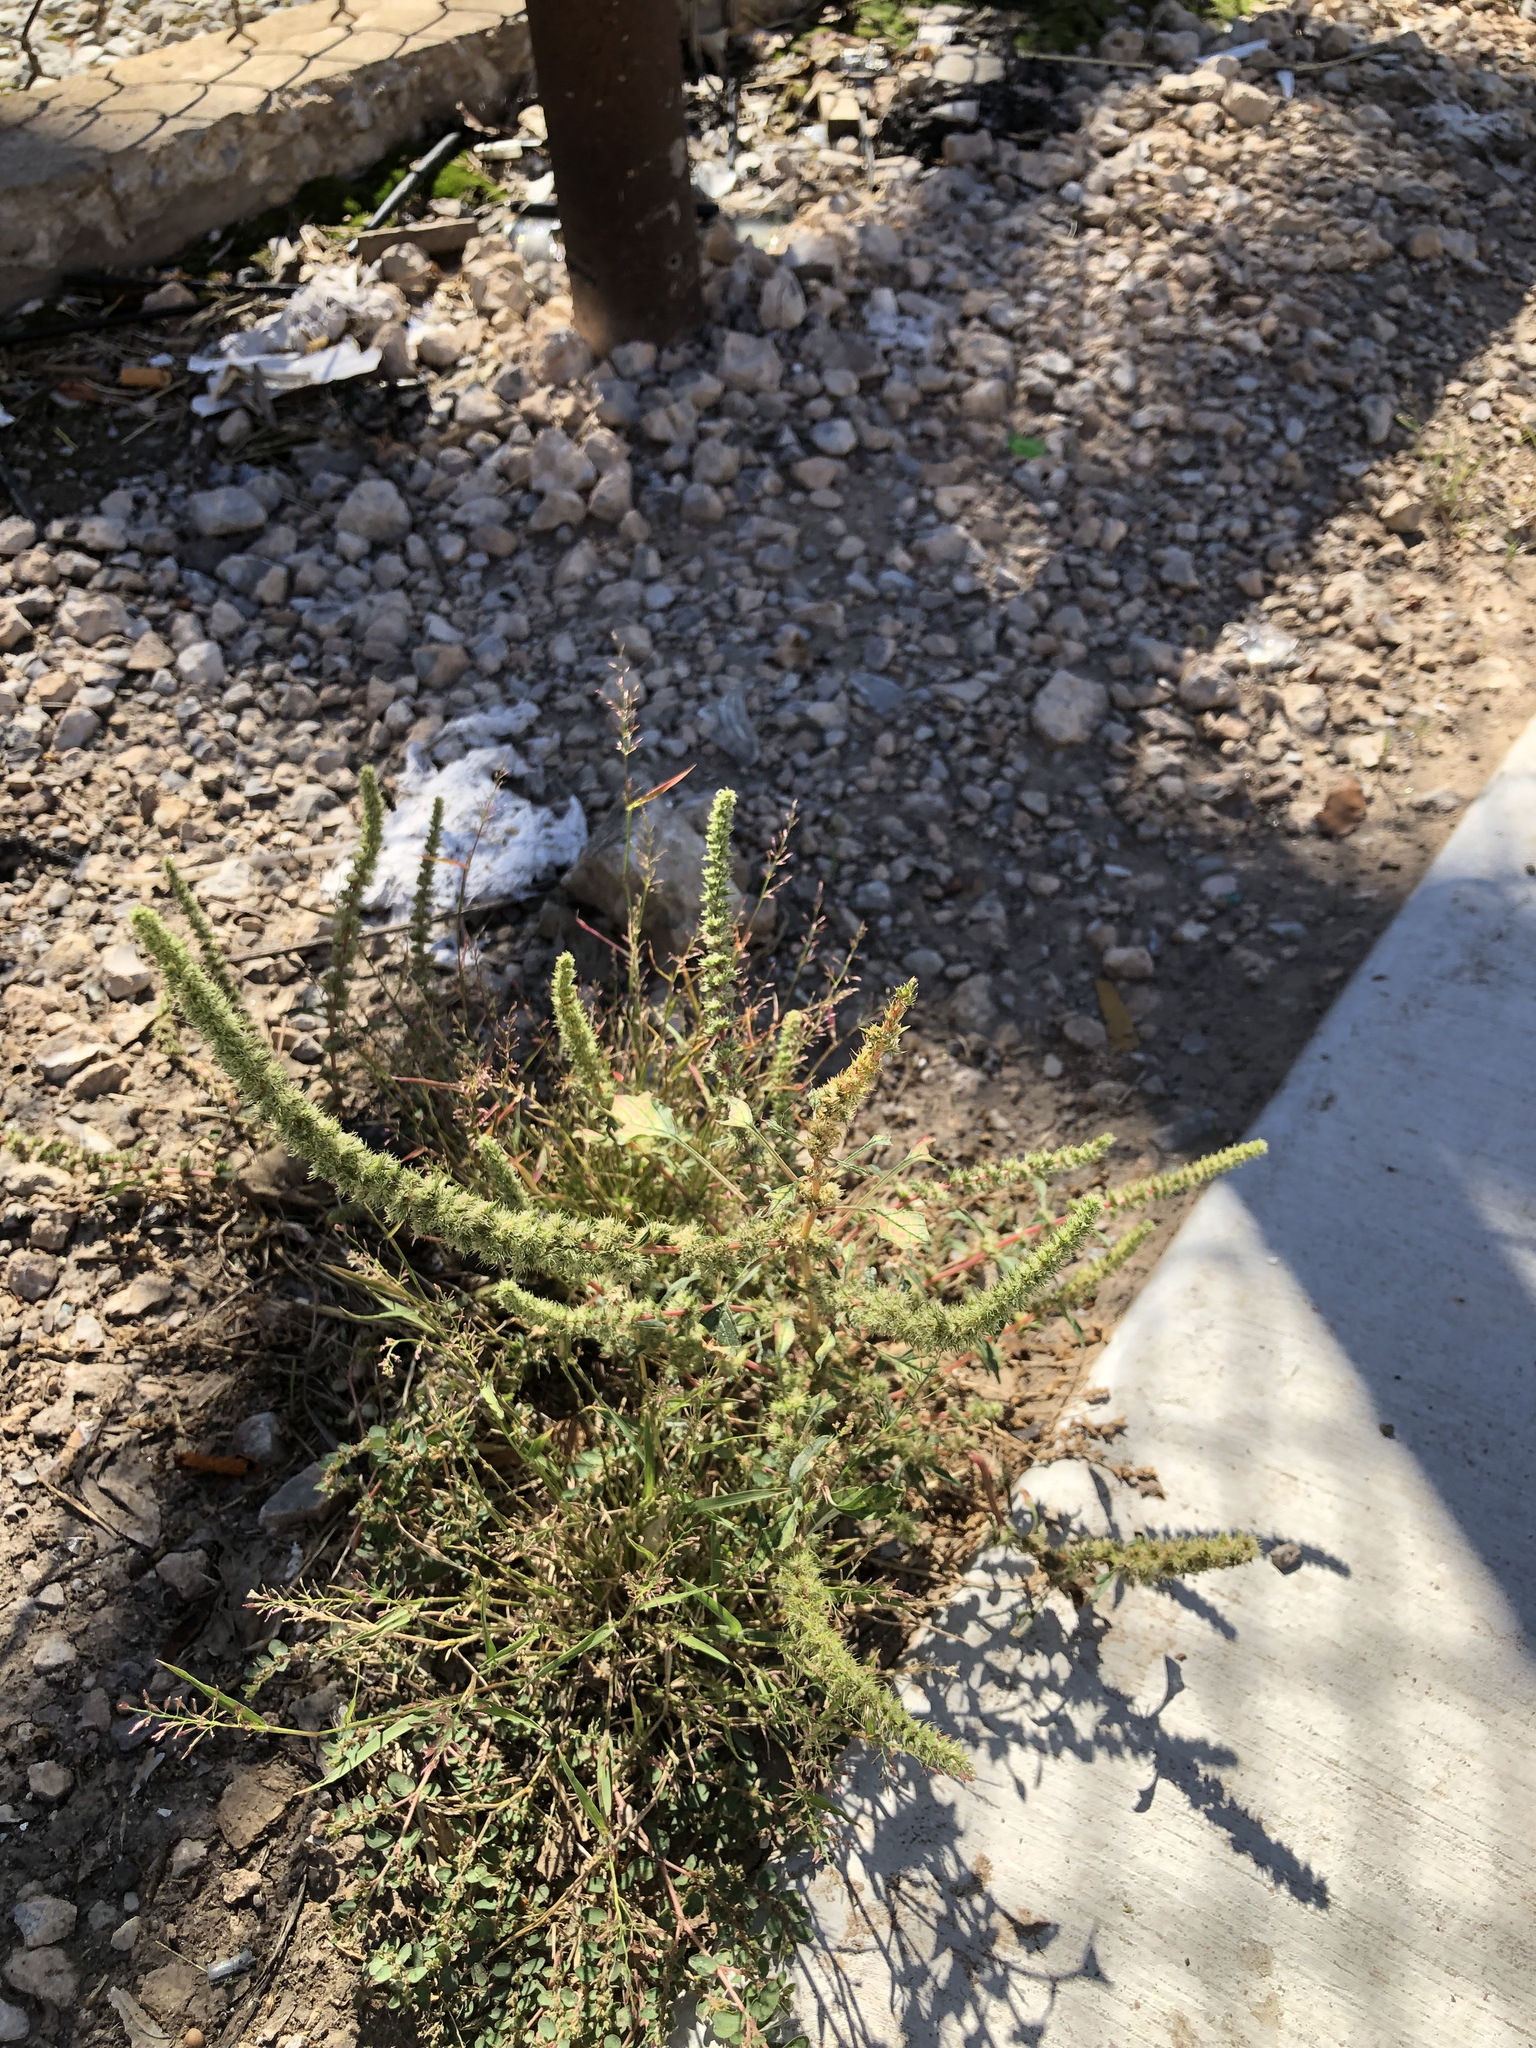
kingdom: Plantae
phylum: Tracheophyta
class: Magnoliopsida
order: Caryophyllales
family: Amaranthaceae
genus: Amaranthus
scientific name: Amaranthus palmeri
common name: Dioecious amaranth
